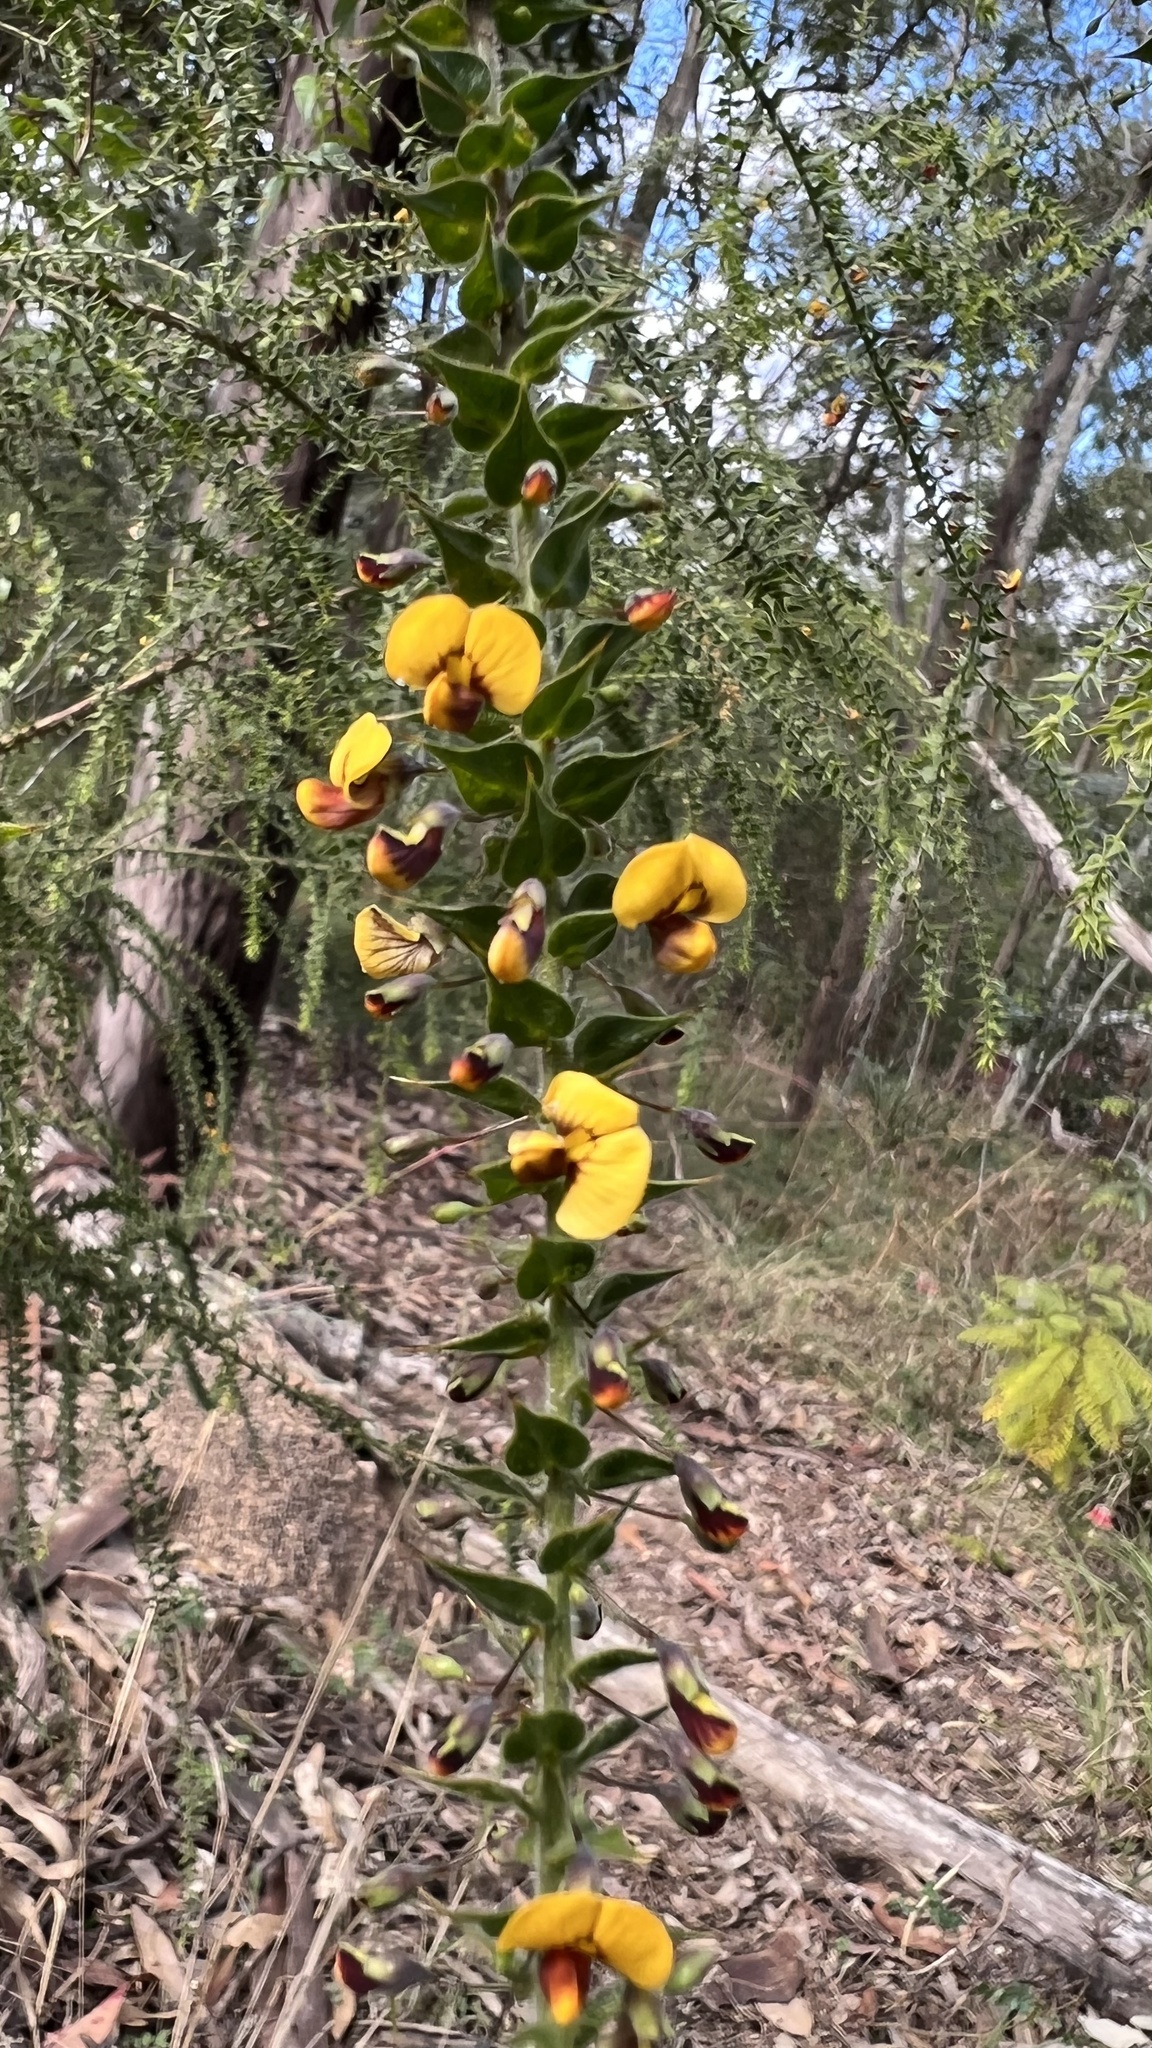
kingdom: Plantae
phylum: Tracheophyta
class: Magnoliopsida
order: Fabales
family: Fabaceae
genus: Daviesia
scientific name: Daviesia villifera
